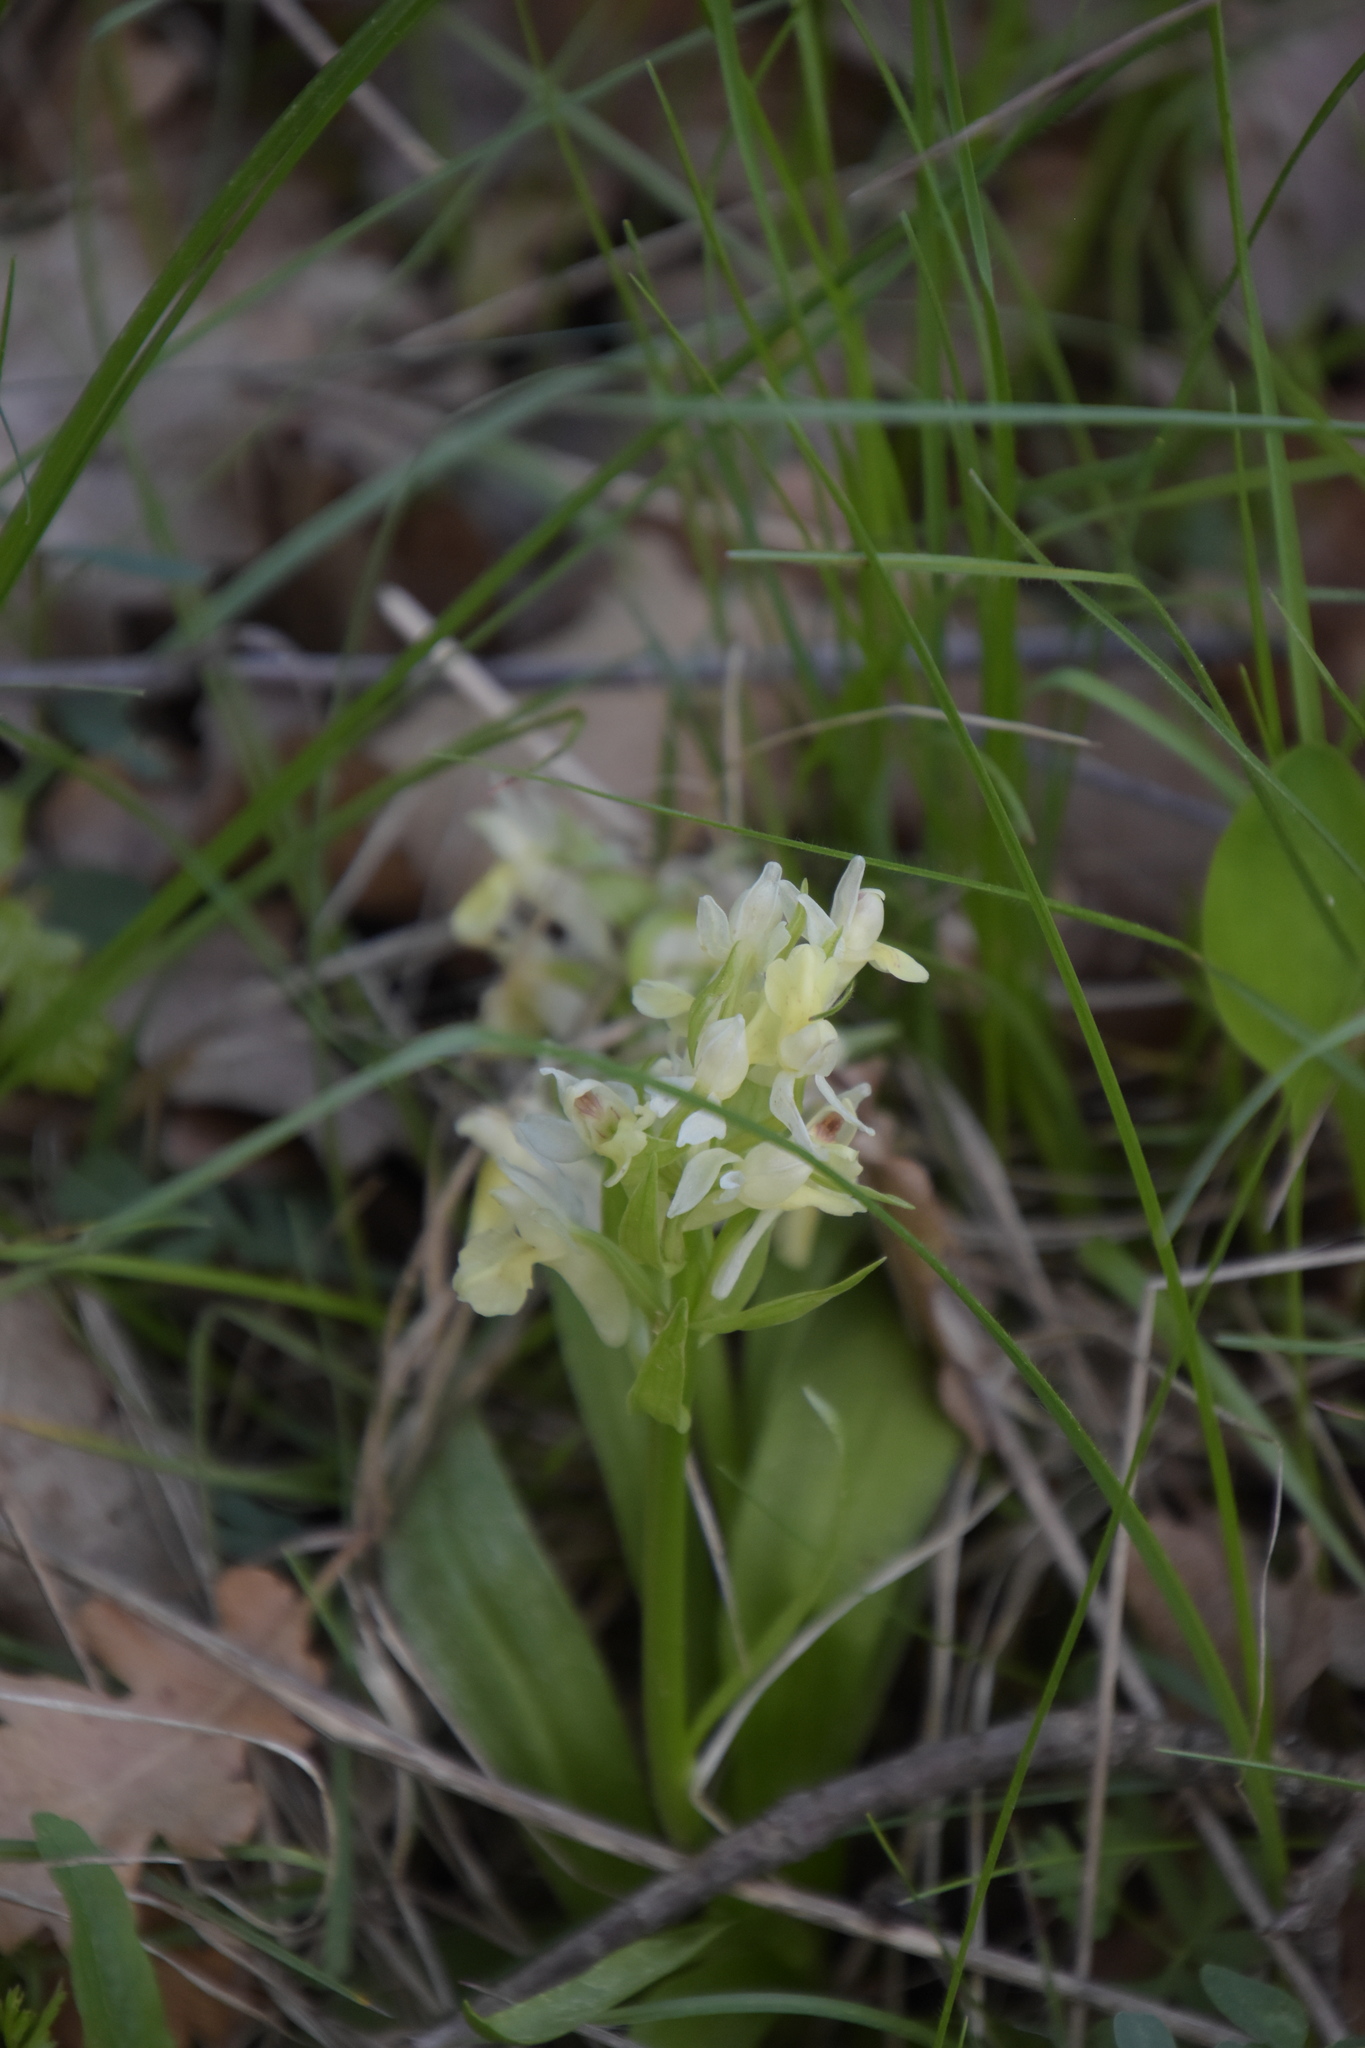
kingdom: Plantae
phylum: Tracheophyta
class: Liliopsida
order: Asparagales
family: Orchidaceae
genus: Dactylorhiza
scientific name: Dactylorhiza sambucina
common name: Elder-flowered orchid
